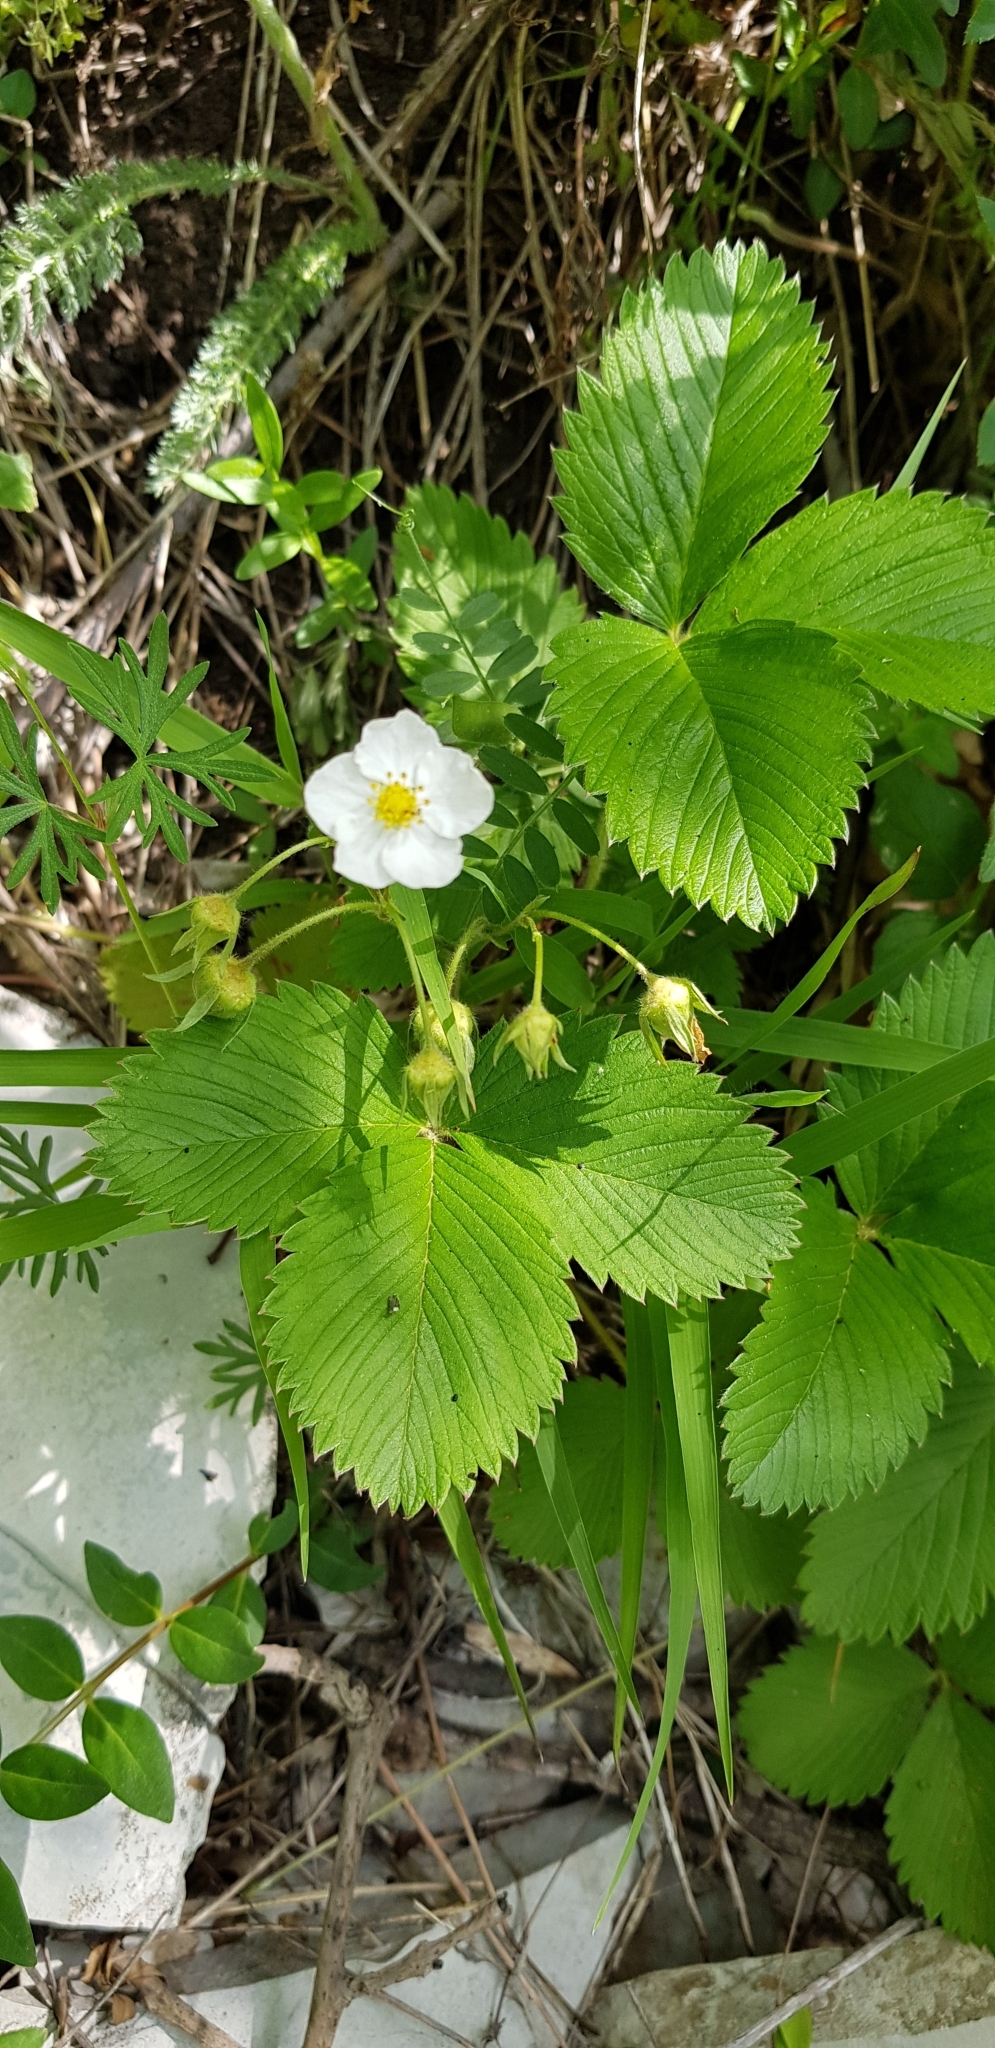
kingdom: Plantae
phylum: Tracheophyta
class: Magnoliopsida
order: Rosales
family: Rosaceae
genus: Fragaria
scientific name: Fragaria viridis
